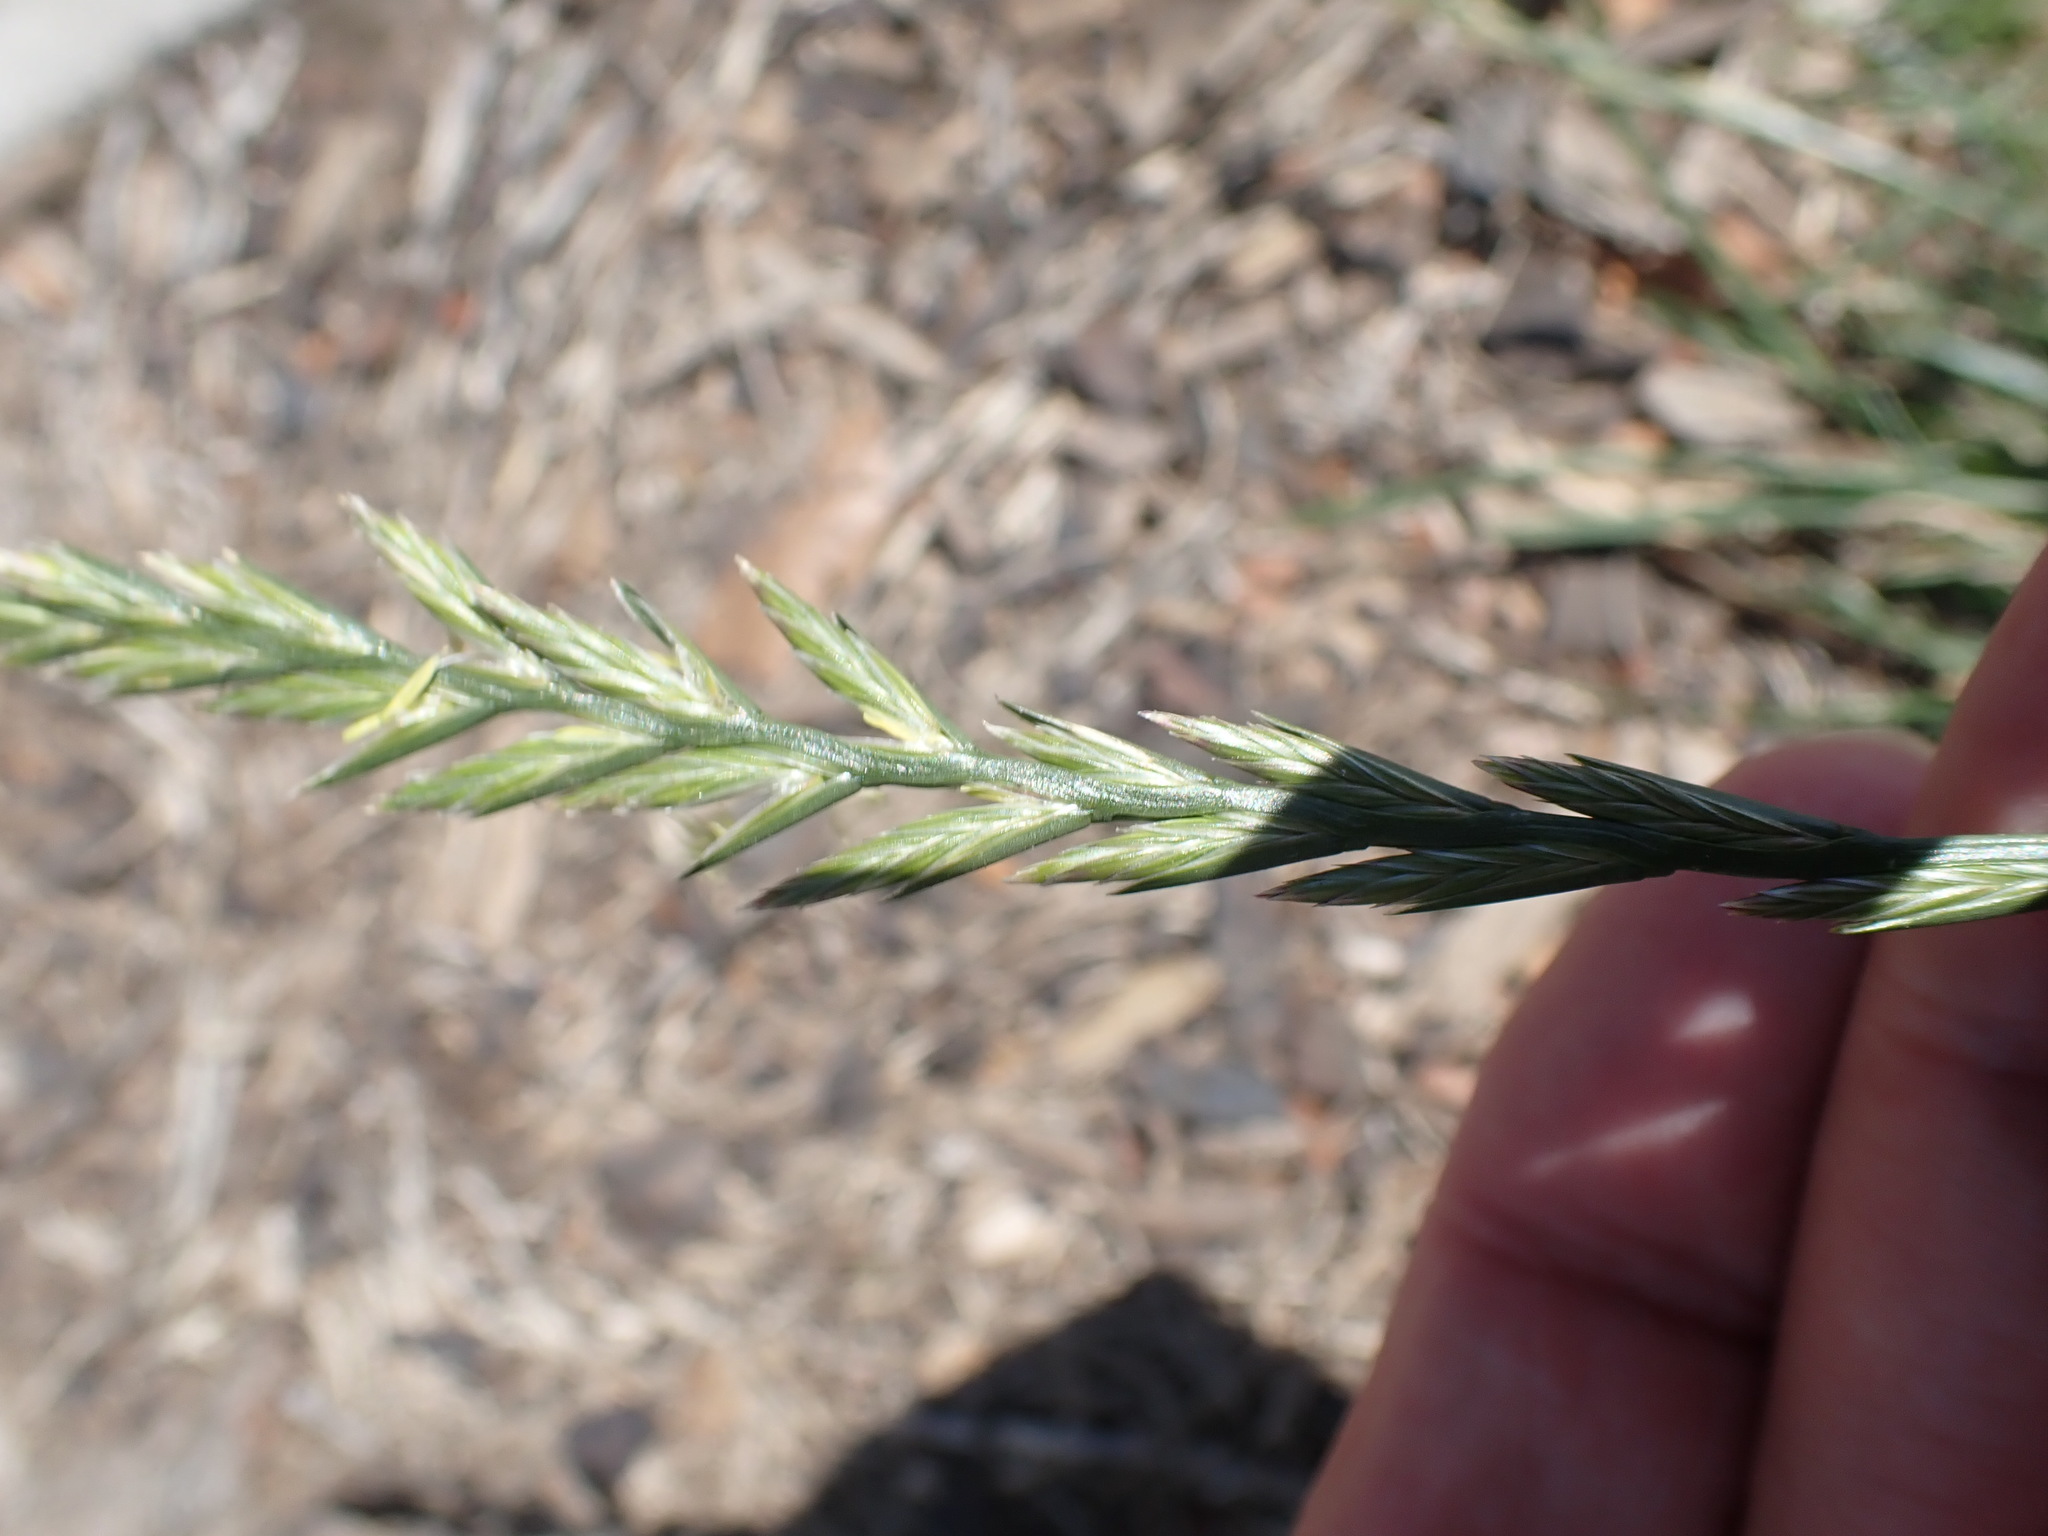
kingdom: Plantae
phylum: Tracheophyta
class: Liliopsida
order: Poales
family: Poaceae
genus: Lolium
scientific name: Lolium perenne
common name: Perennial ryegrass
